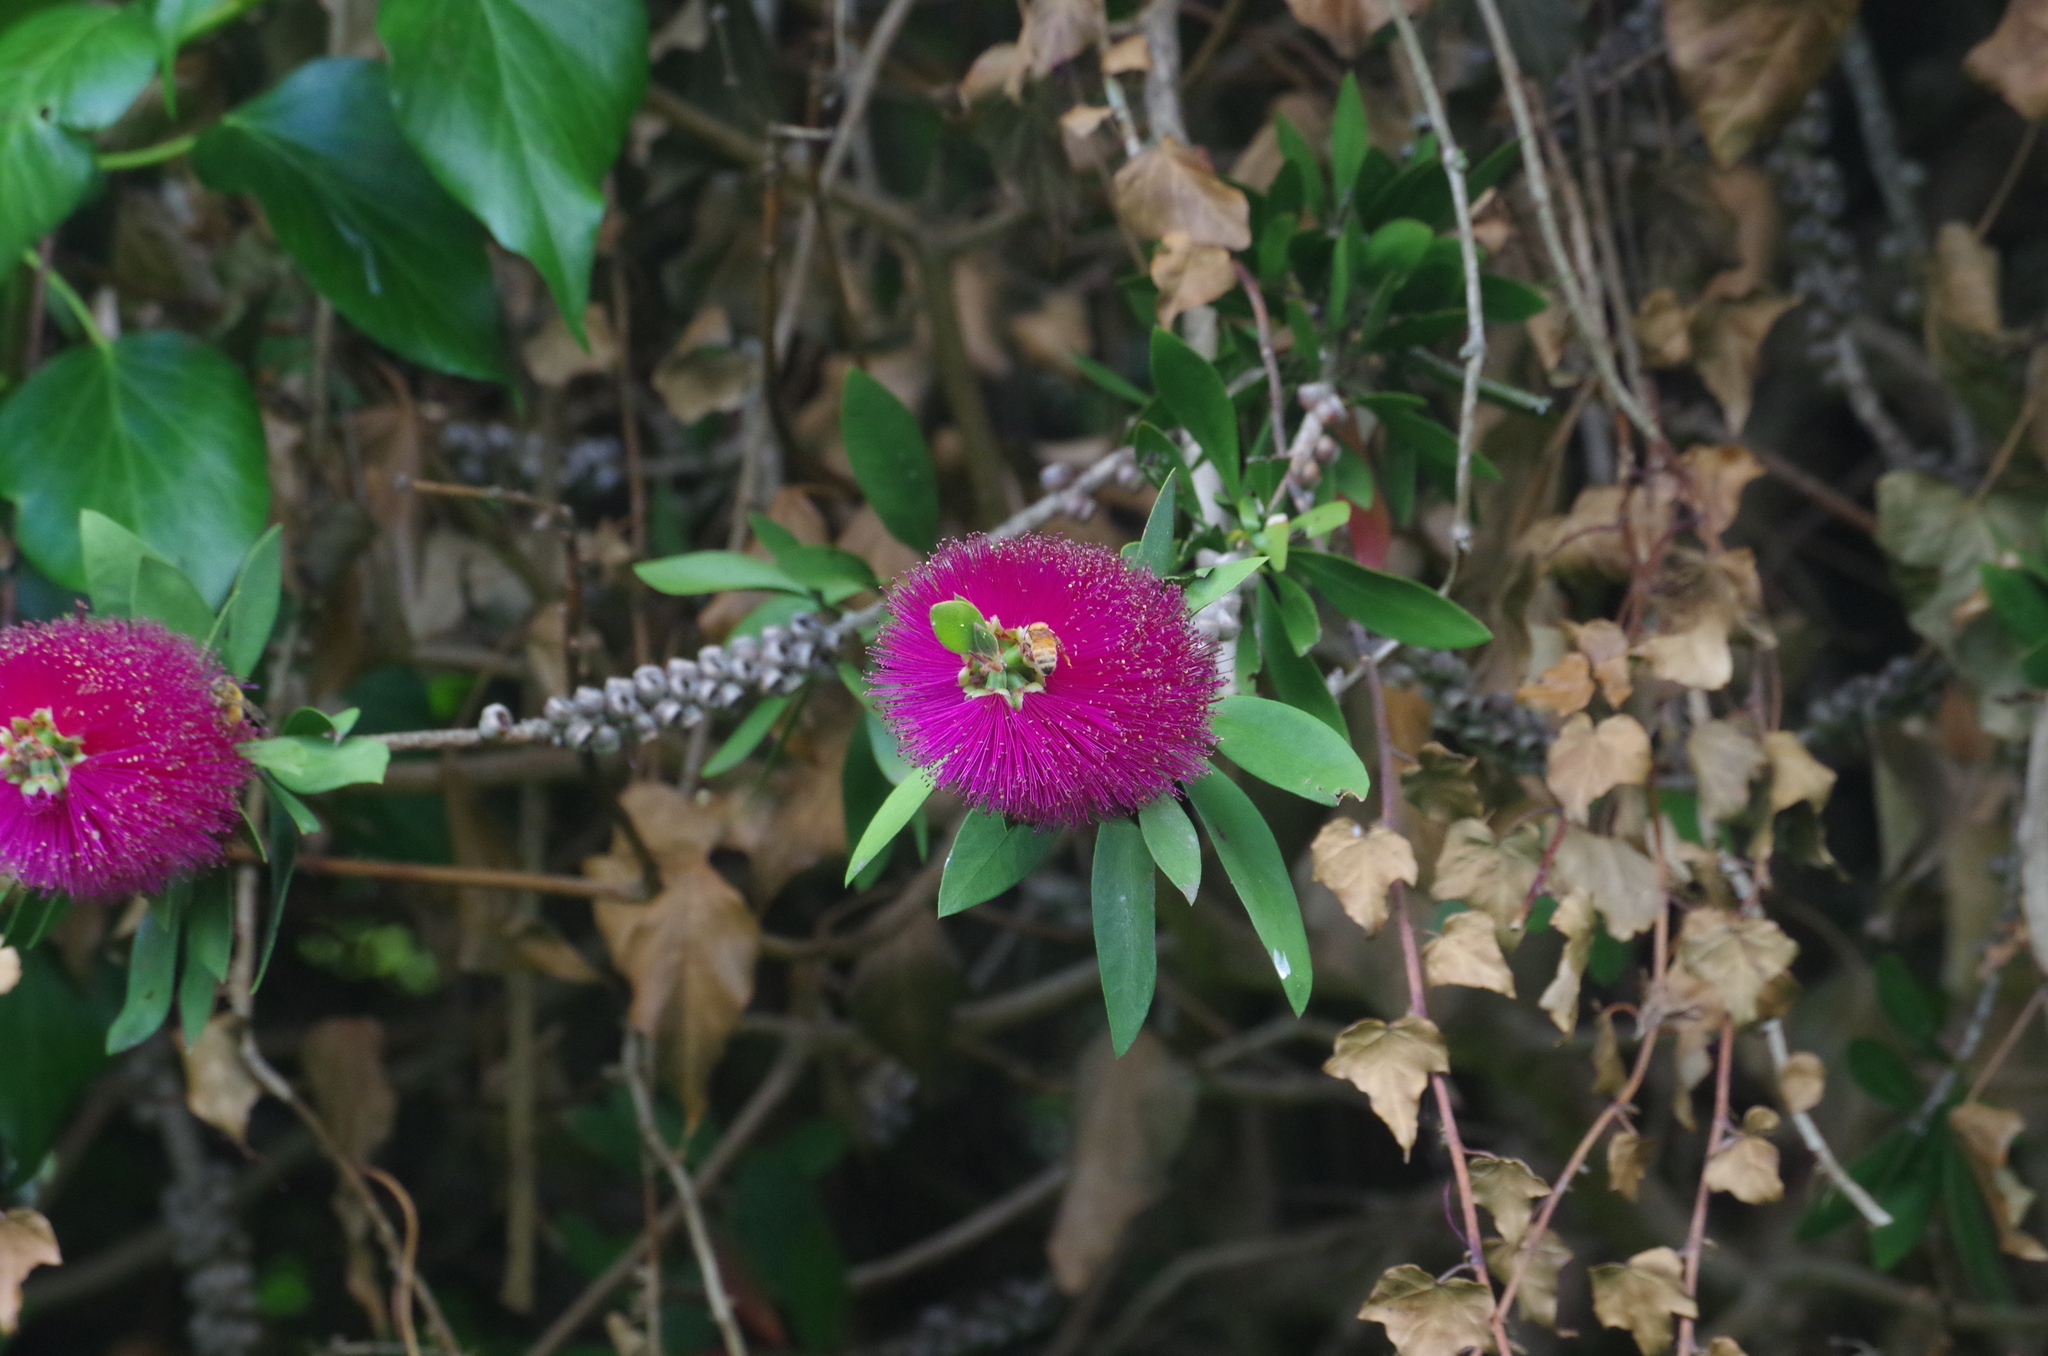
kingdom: Animalia
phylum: Arthropoda
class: Insecta
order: Hymenoptera
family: Apidae
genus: Apis
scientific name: Apis mellifera
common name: Honey bee
